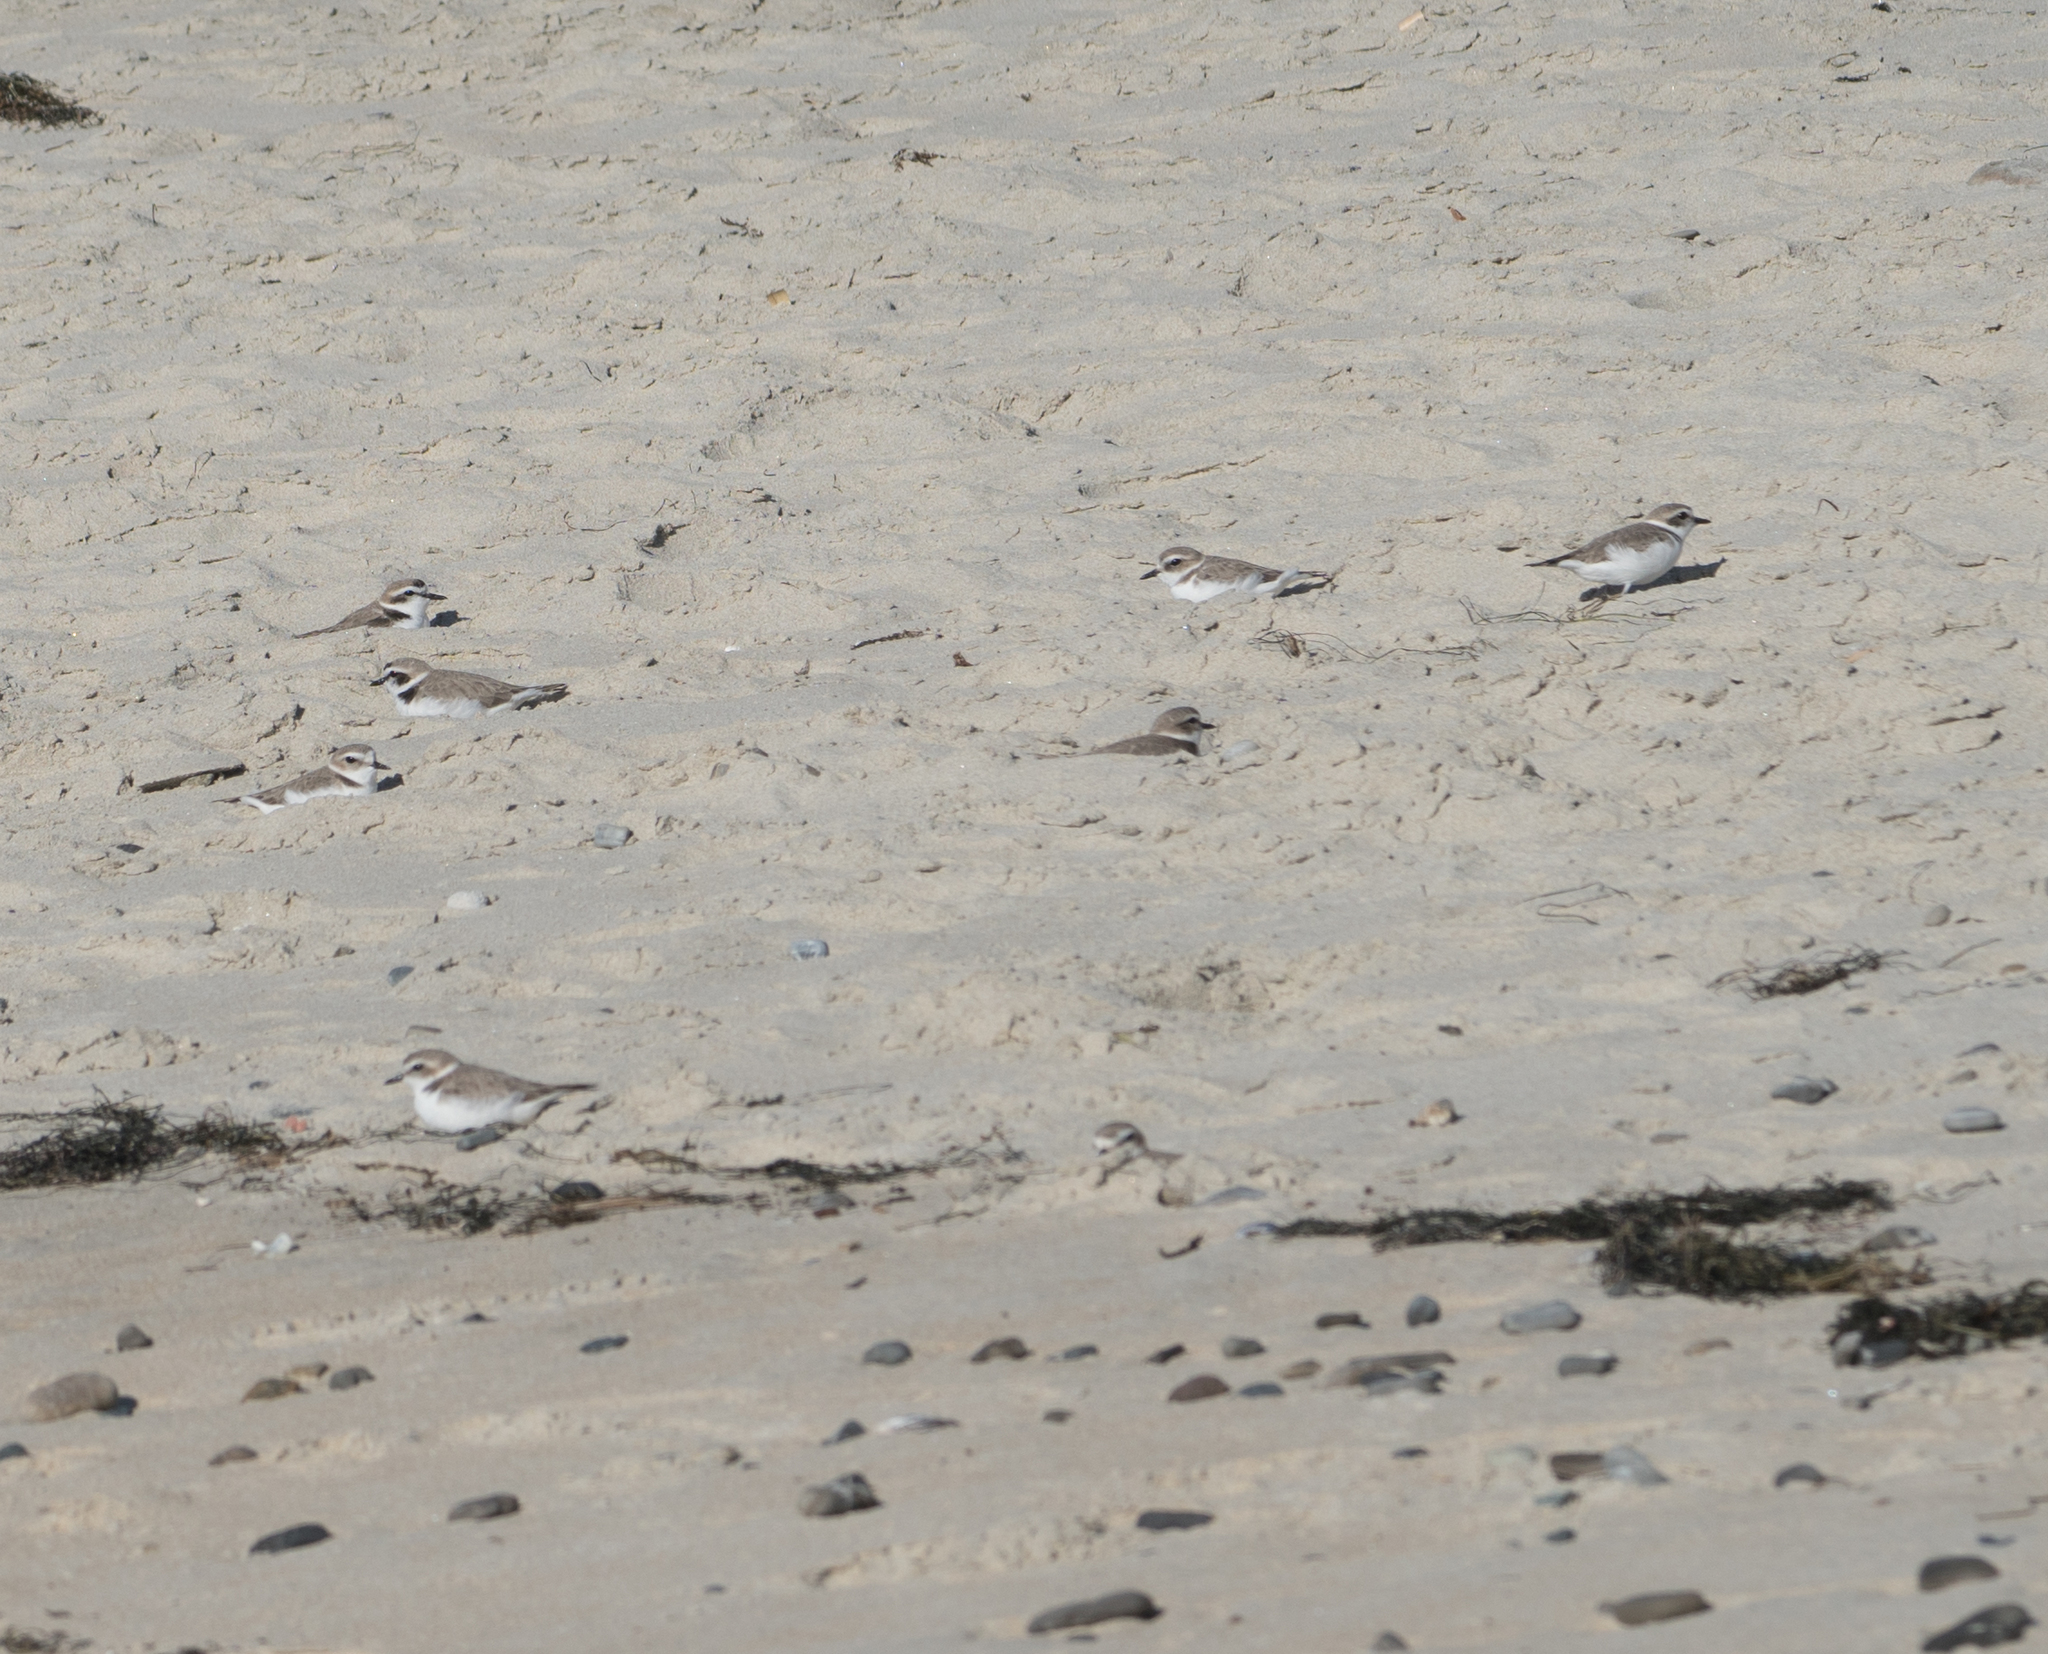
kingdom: Animalia
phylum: Chordata
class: Aves
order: Charadriiformes
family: Charadriidae
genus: Anarhynchus
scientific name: Anarhynchus
